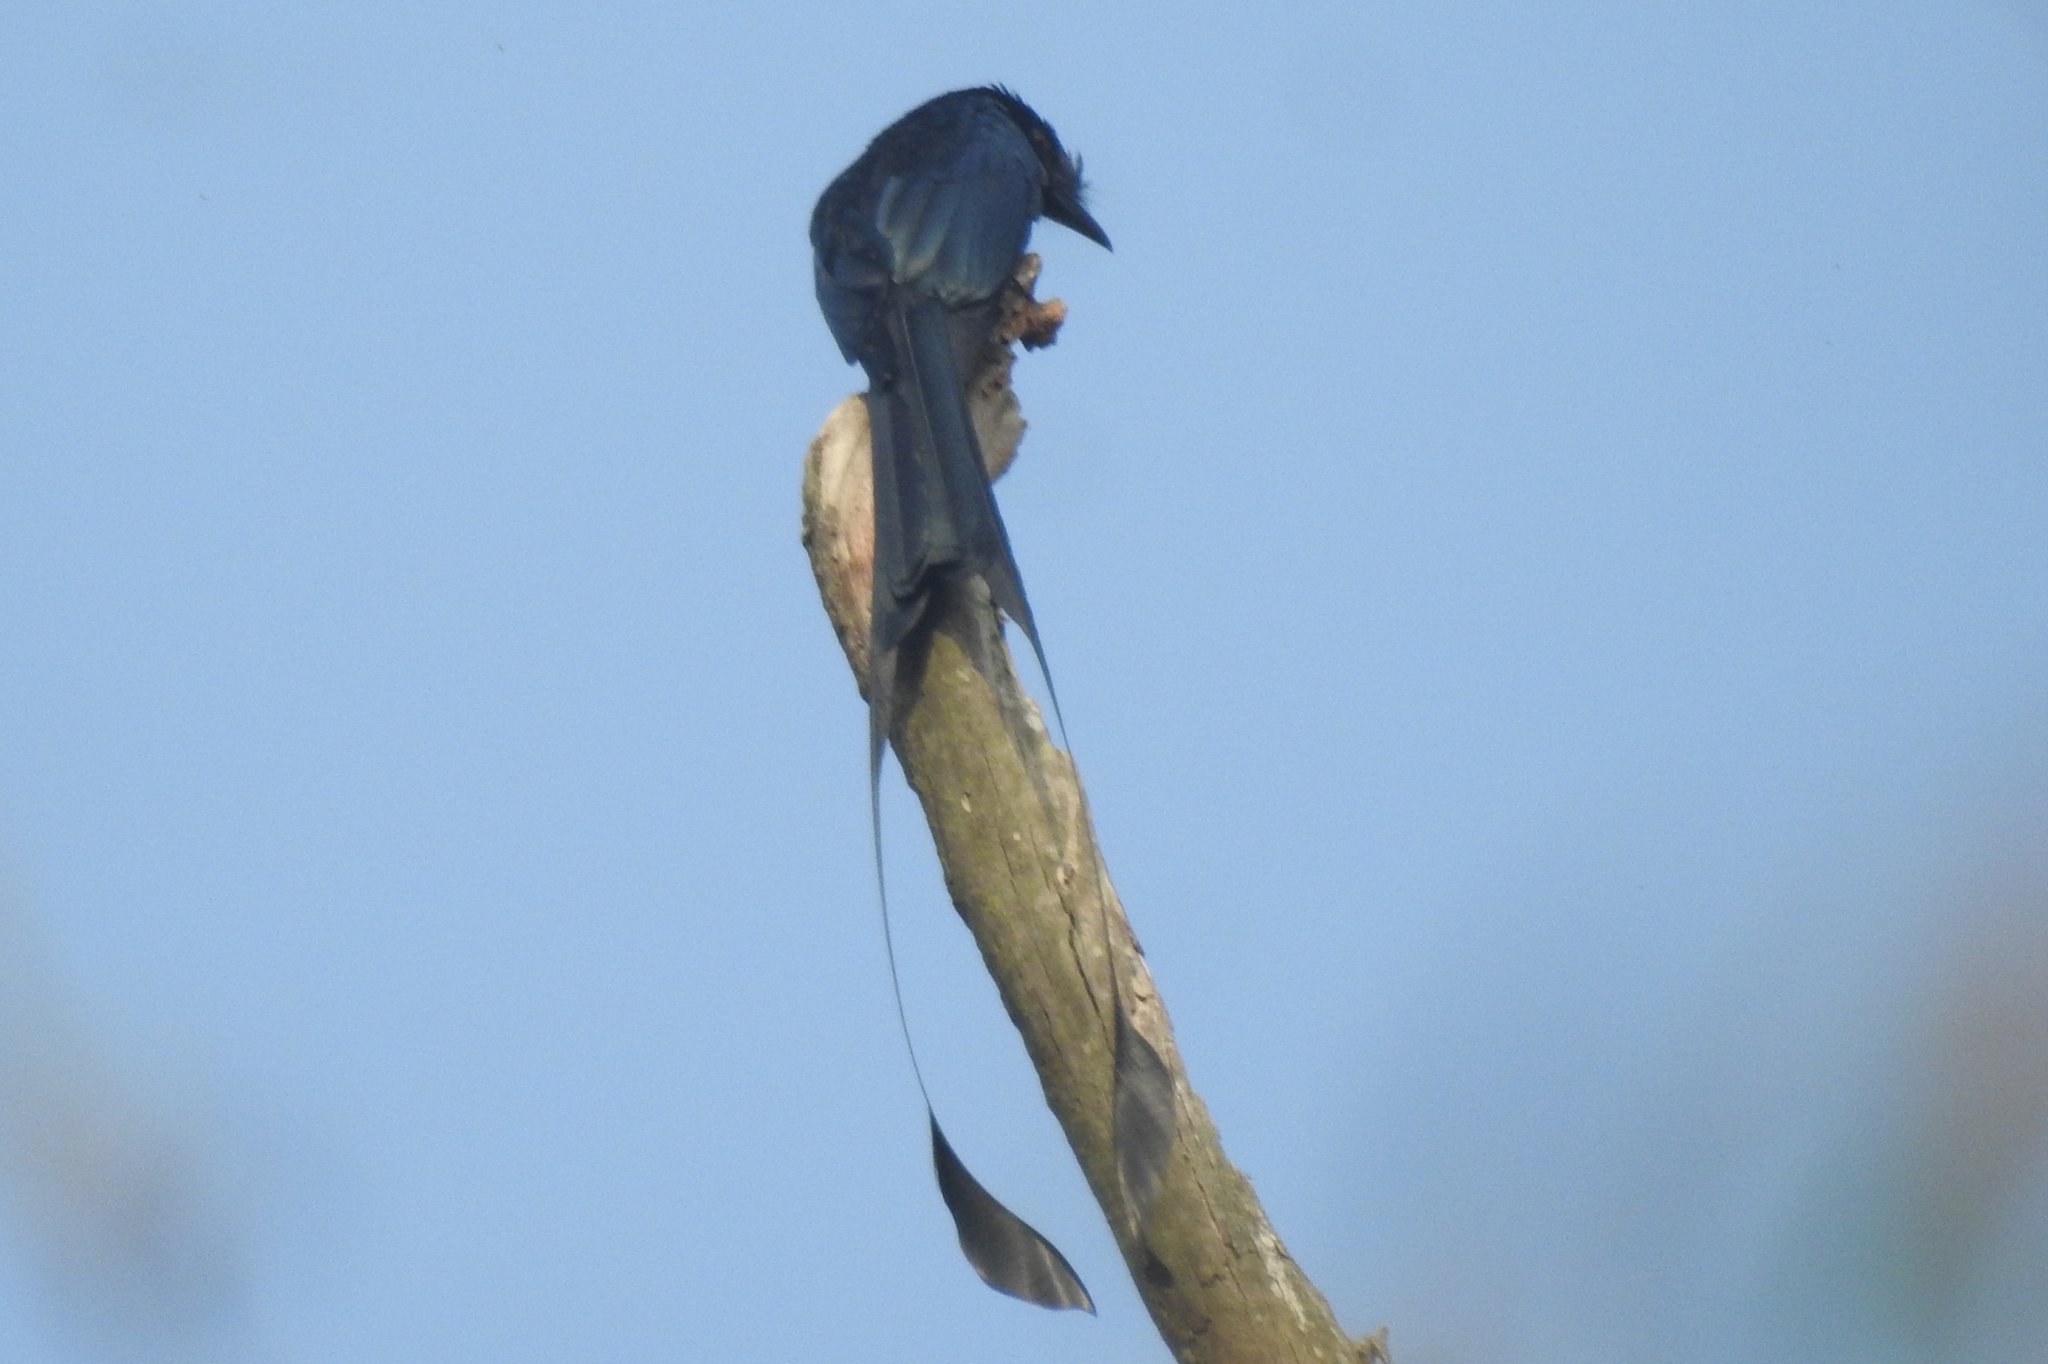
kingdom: Animalia
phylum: Chordata
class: Aves
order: Passeriformes
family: Dicruridae
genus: Dicrurus
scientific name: Dicrurus paradiseus
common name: Greater racket-tailed drongo
